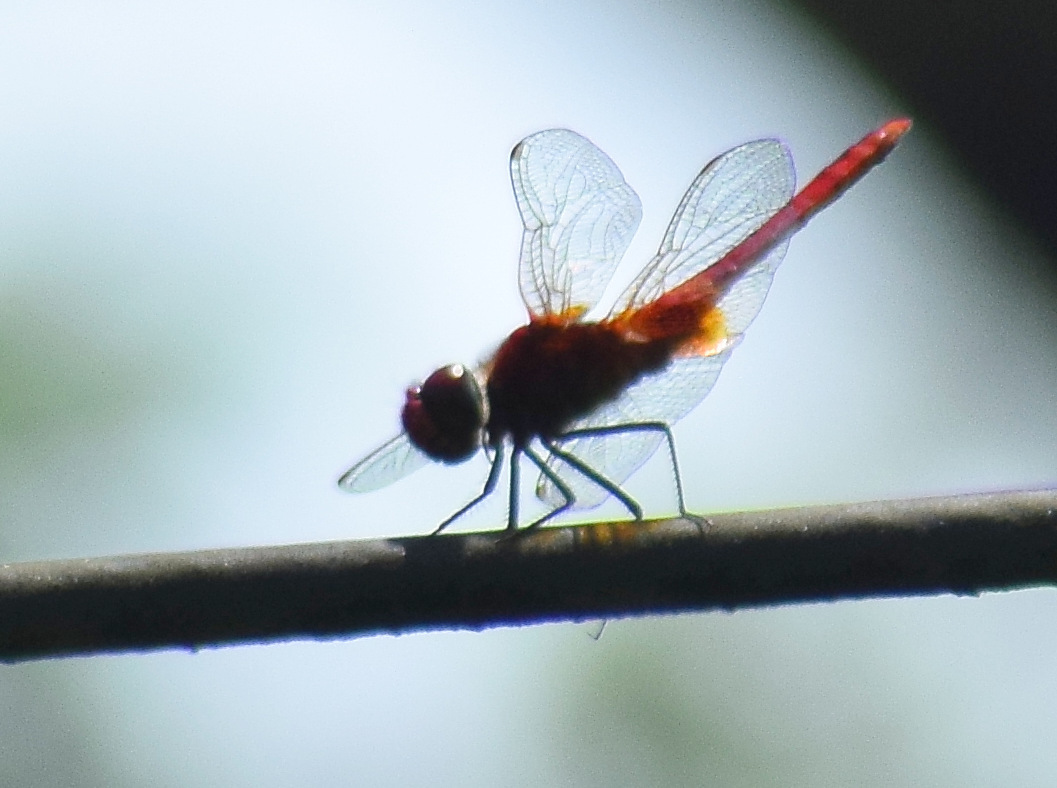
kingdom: Animalia
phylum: Arthropoda
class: Insecta
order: Odonata
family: Libellulidae
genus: Urothemis
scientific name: Urothemis signata
